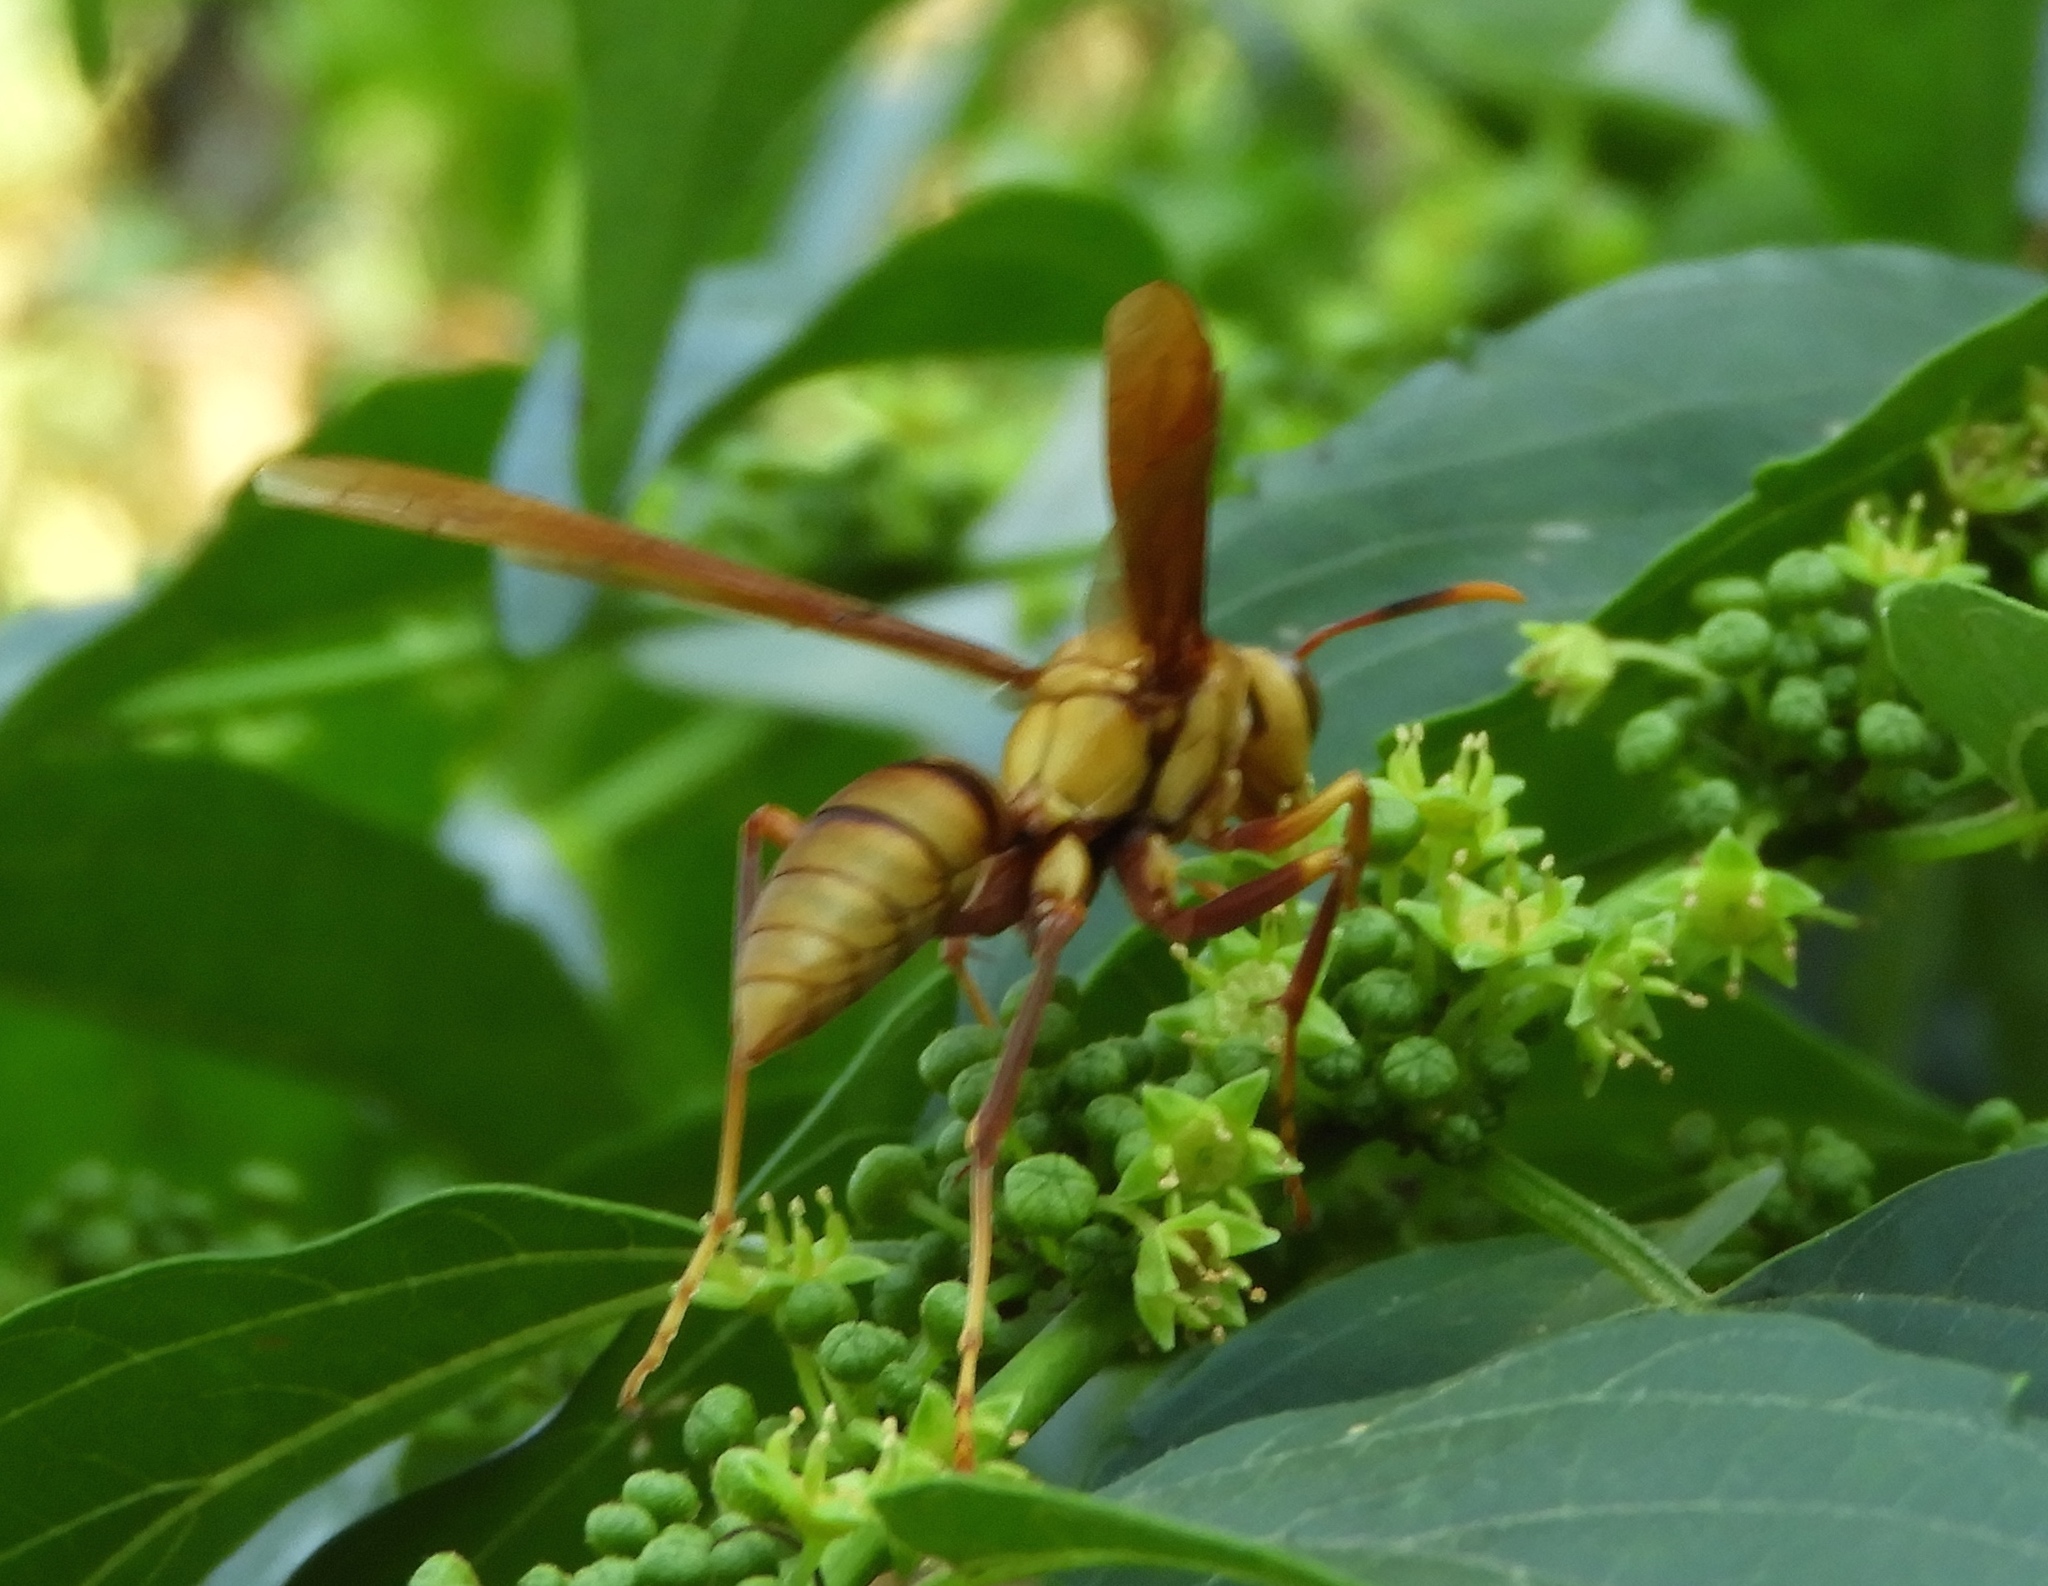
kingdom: Animalia
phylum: Arthropoda
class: Insecta
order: Hymenoptera
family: Eumenidae
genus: Polistes
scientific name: Polistes major
